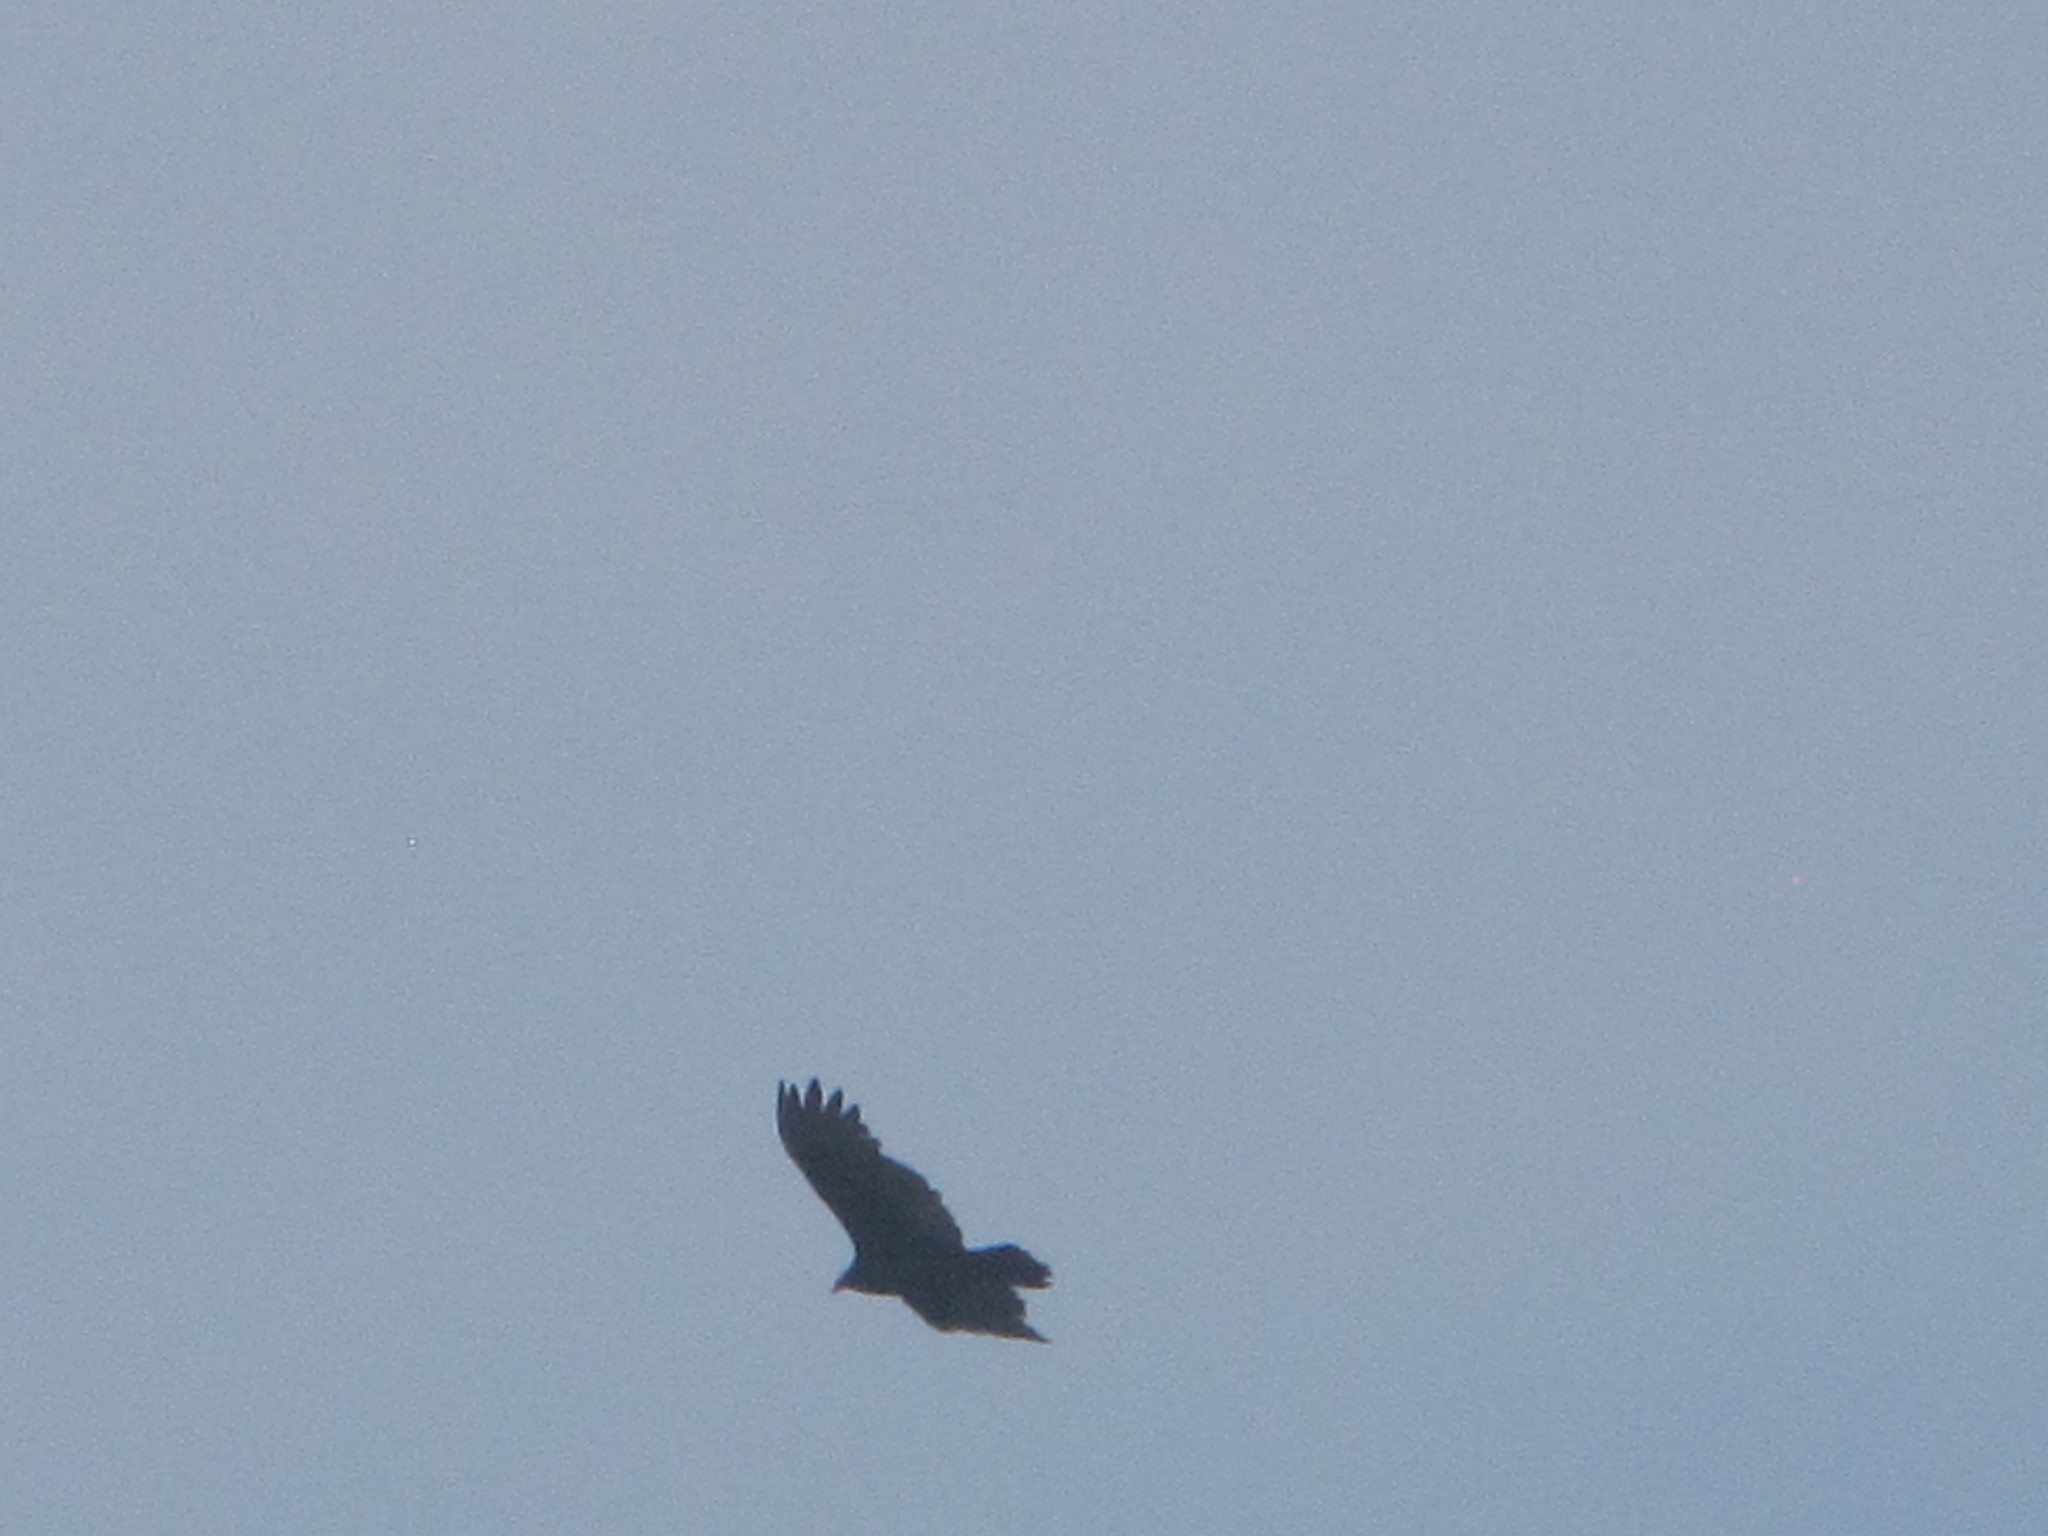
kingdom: Animalia
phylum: Chordata
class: Aves
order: Accipitriformes
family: Cathartidae
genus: Cathartes
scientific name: Cathartes aura
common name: Turkey vulture
